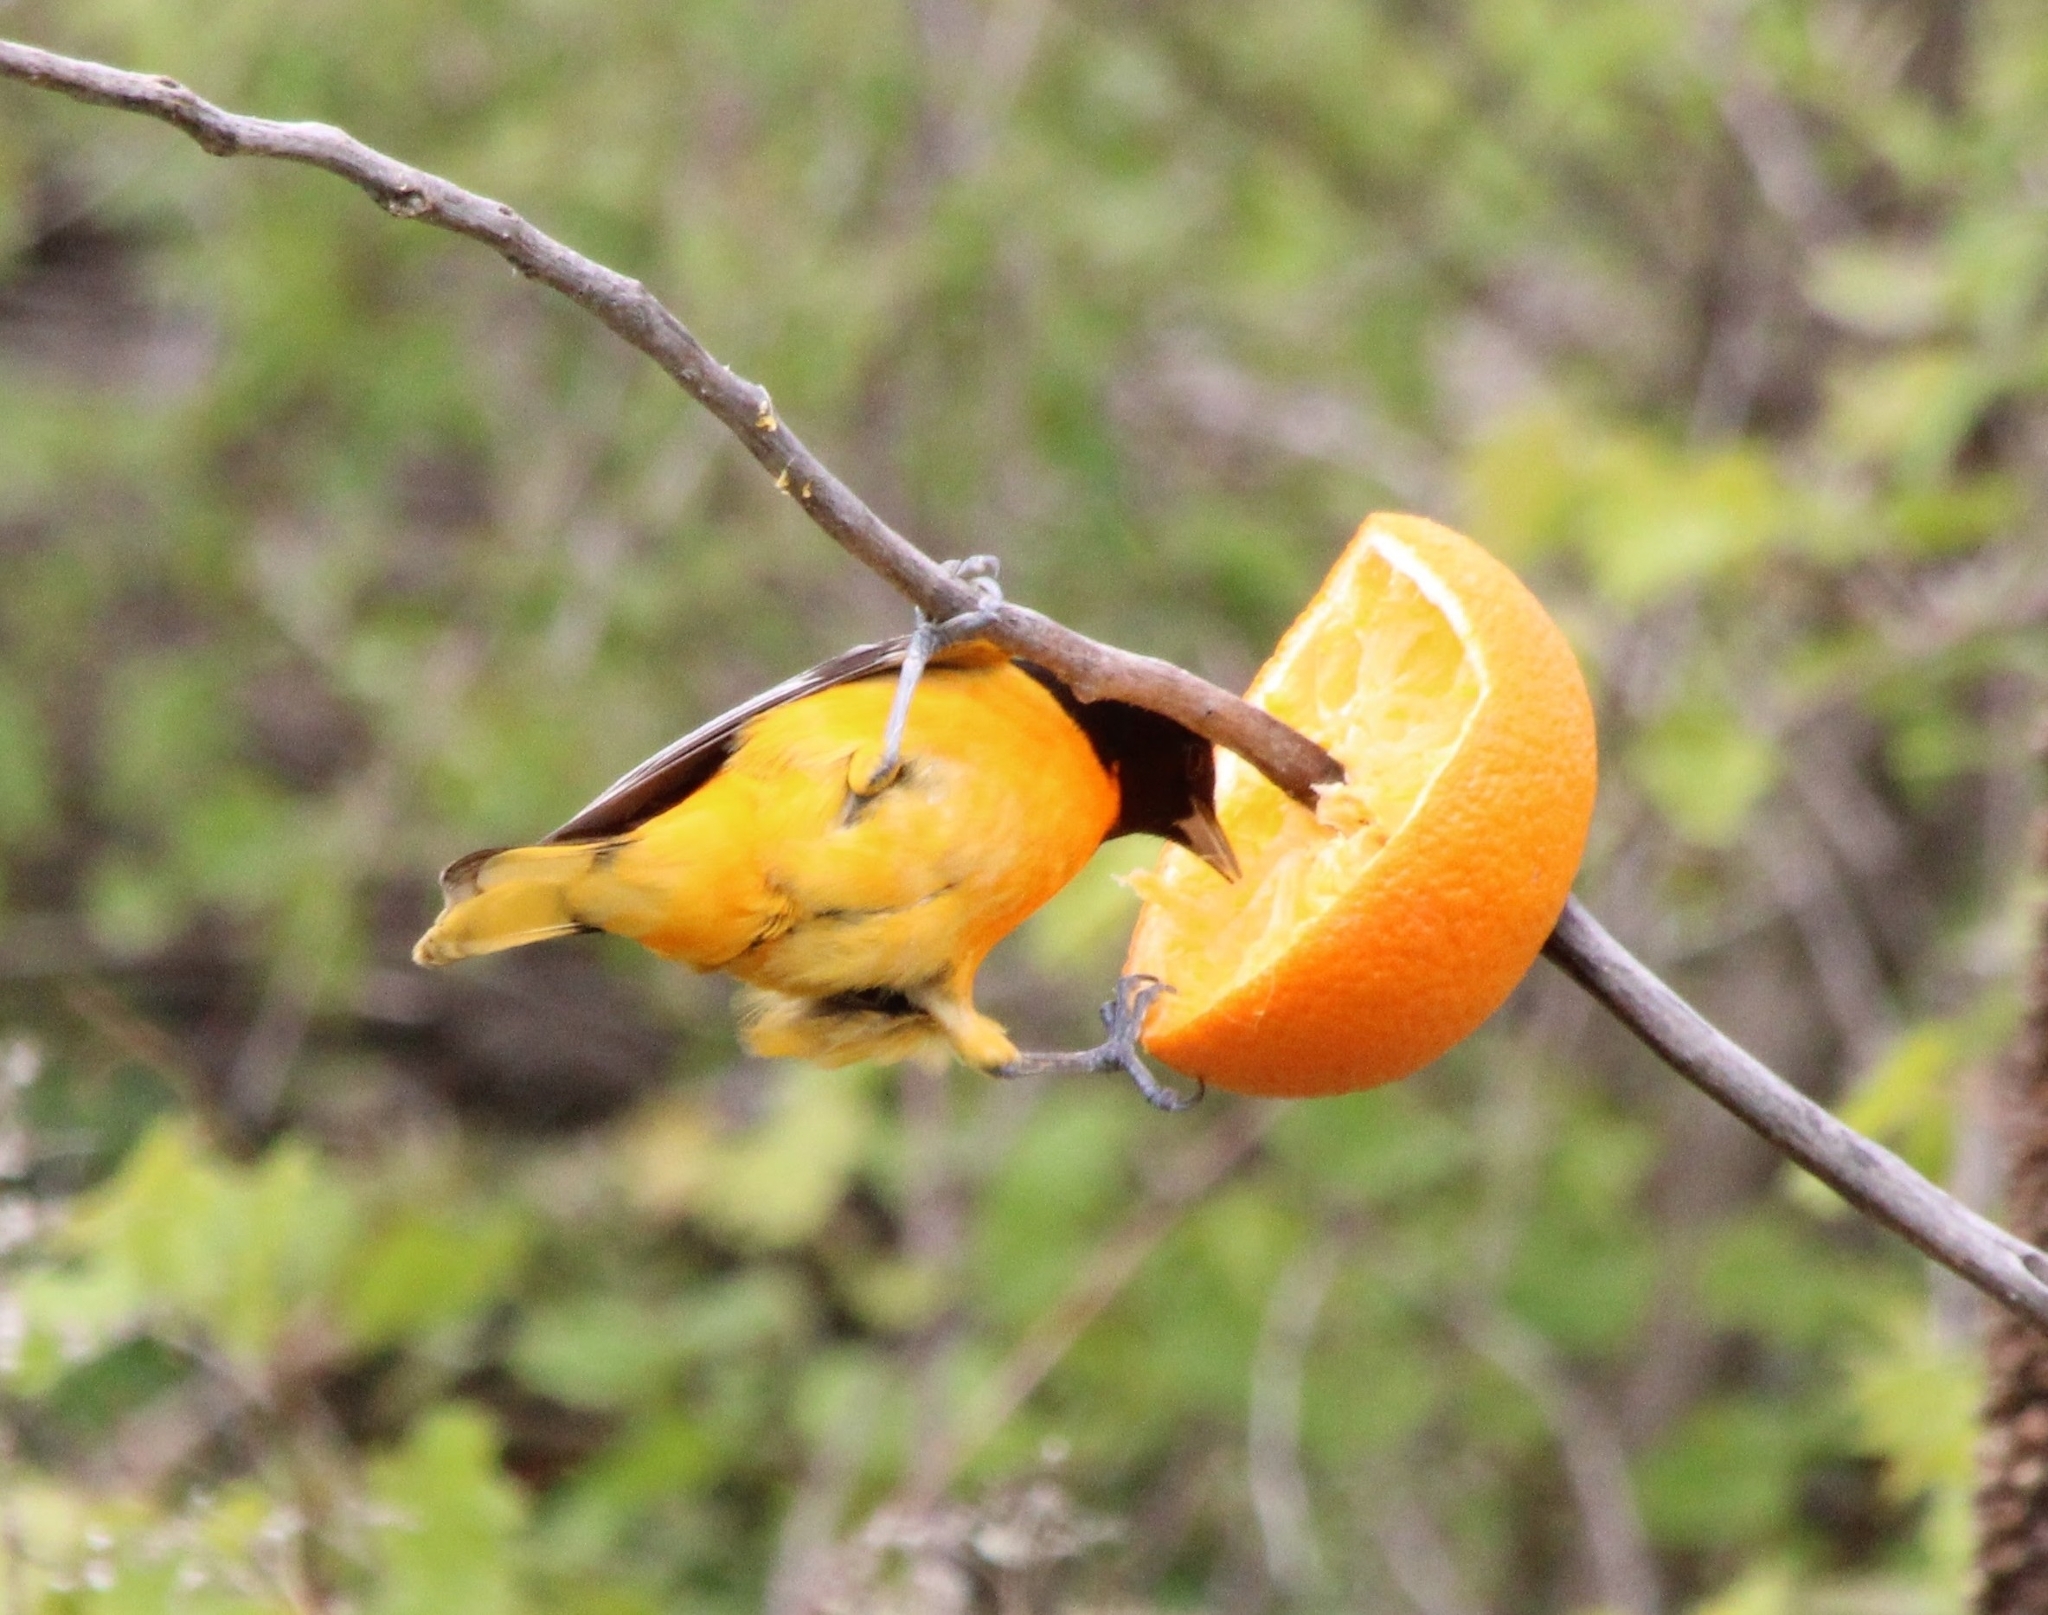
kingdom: Animalia
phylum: Chordata
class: Aves
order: Passeriformes
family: Icteridae
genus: Icterus
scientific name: Icterus galbula
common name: Baltimore oriole
